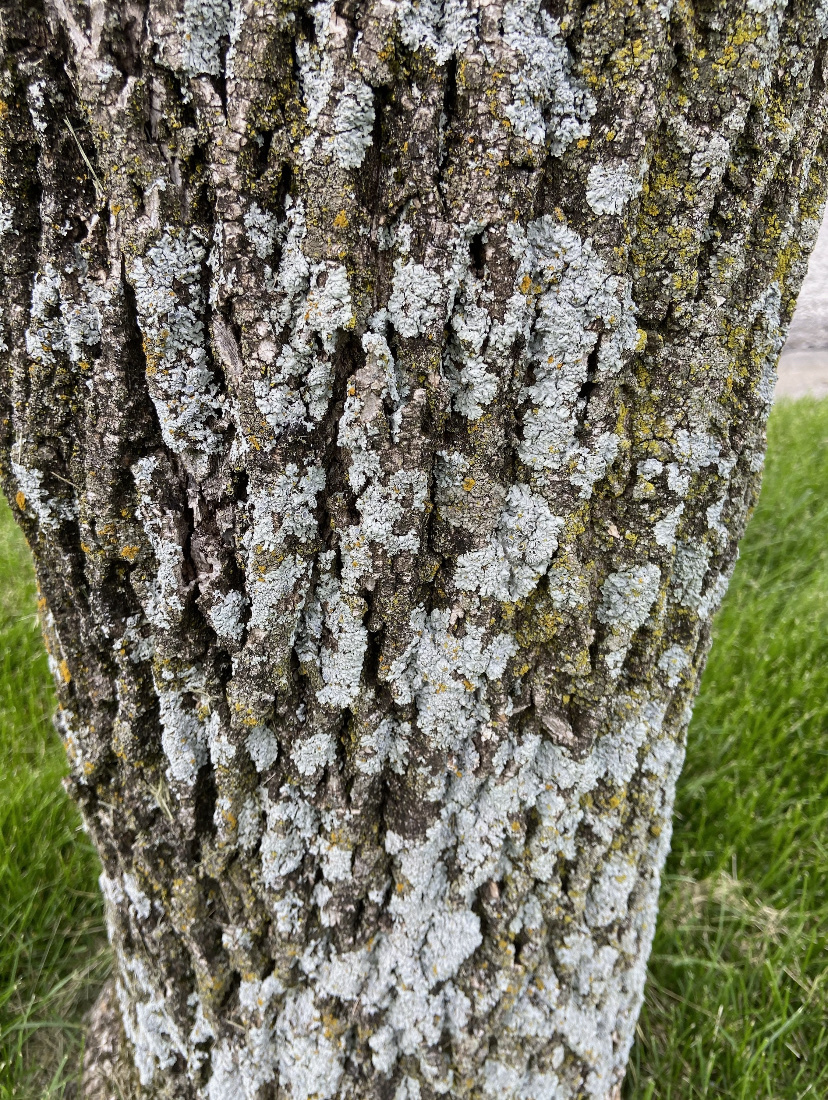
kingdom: Fungi
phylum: Ascomycota
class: Lecanoromycetes
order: Caliciales
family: Physciaceae
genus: Physcia
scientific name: Physcia millegrana
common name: Rosette lichen
